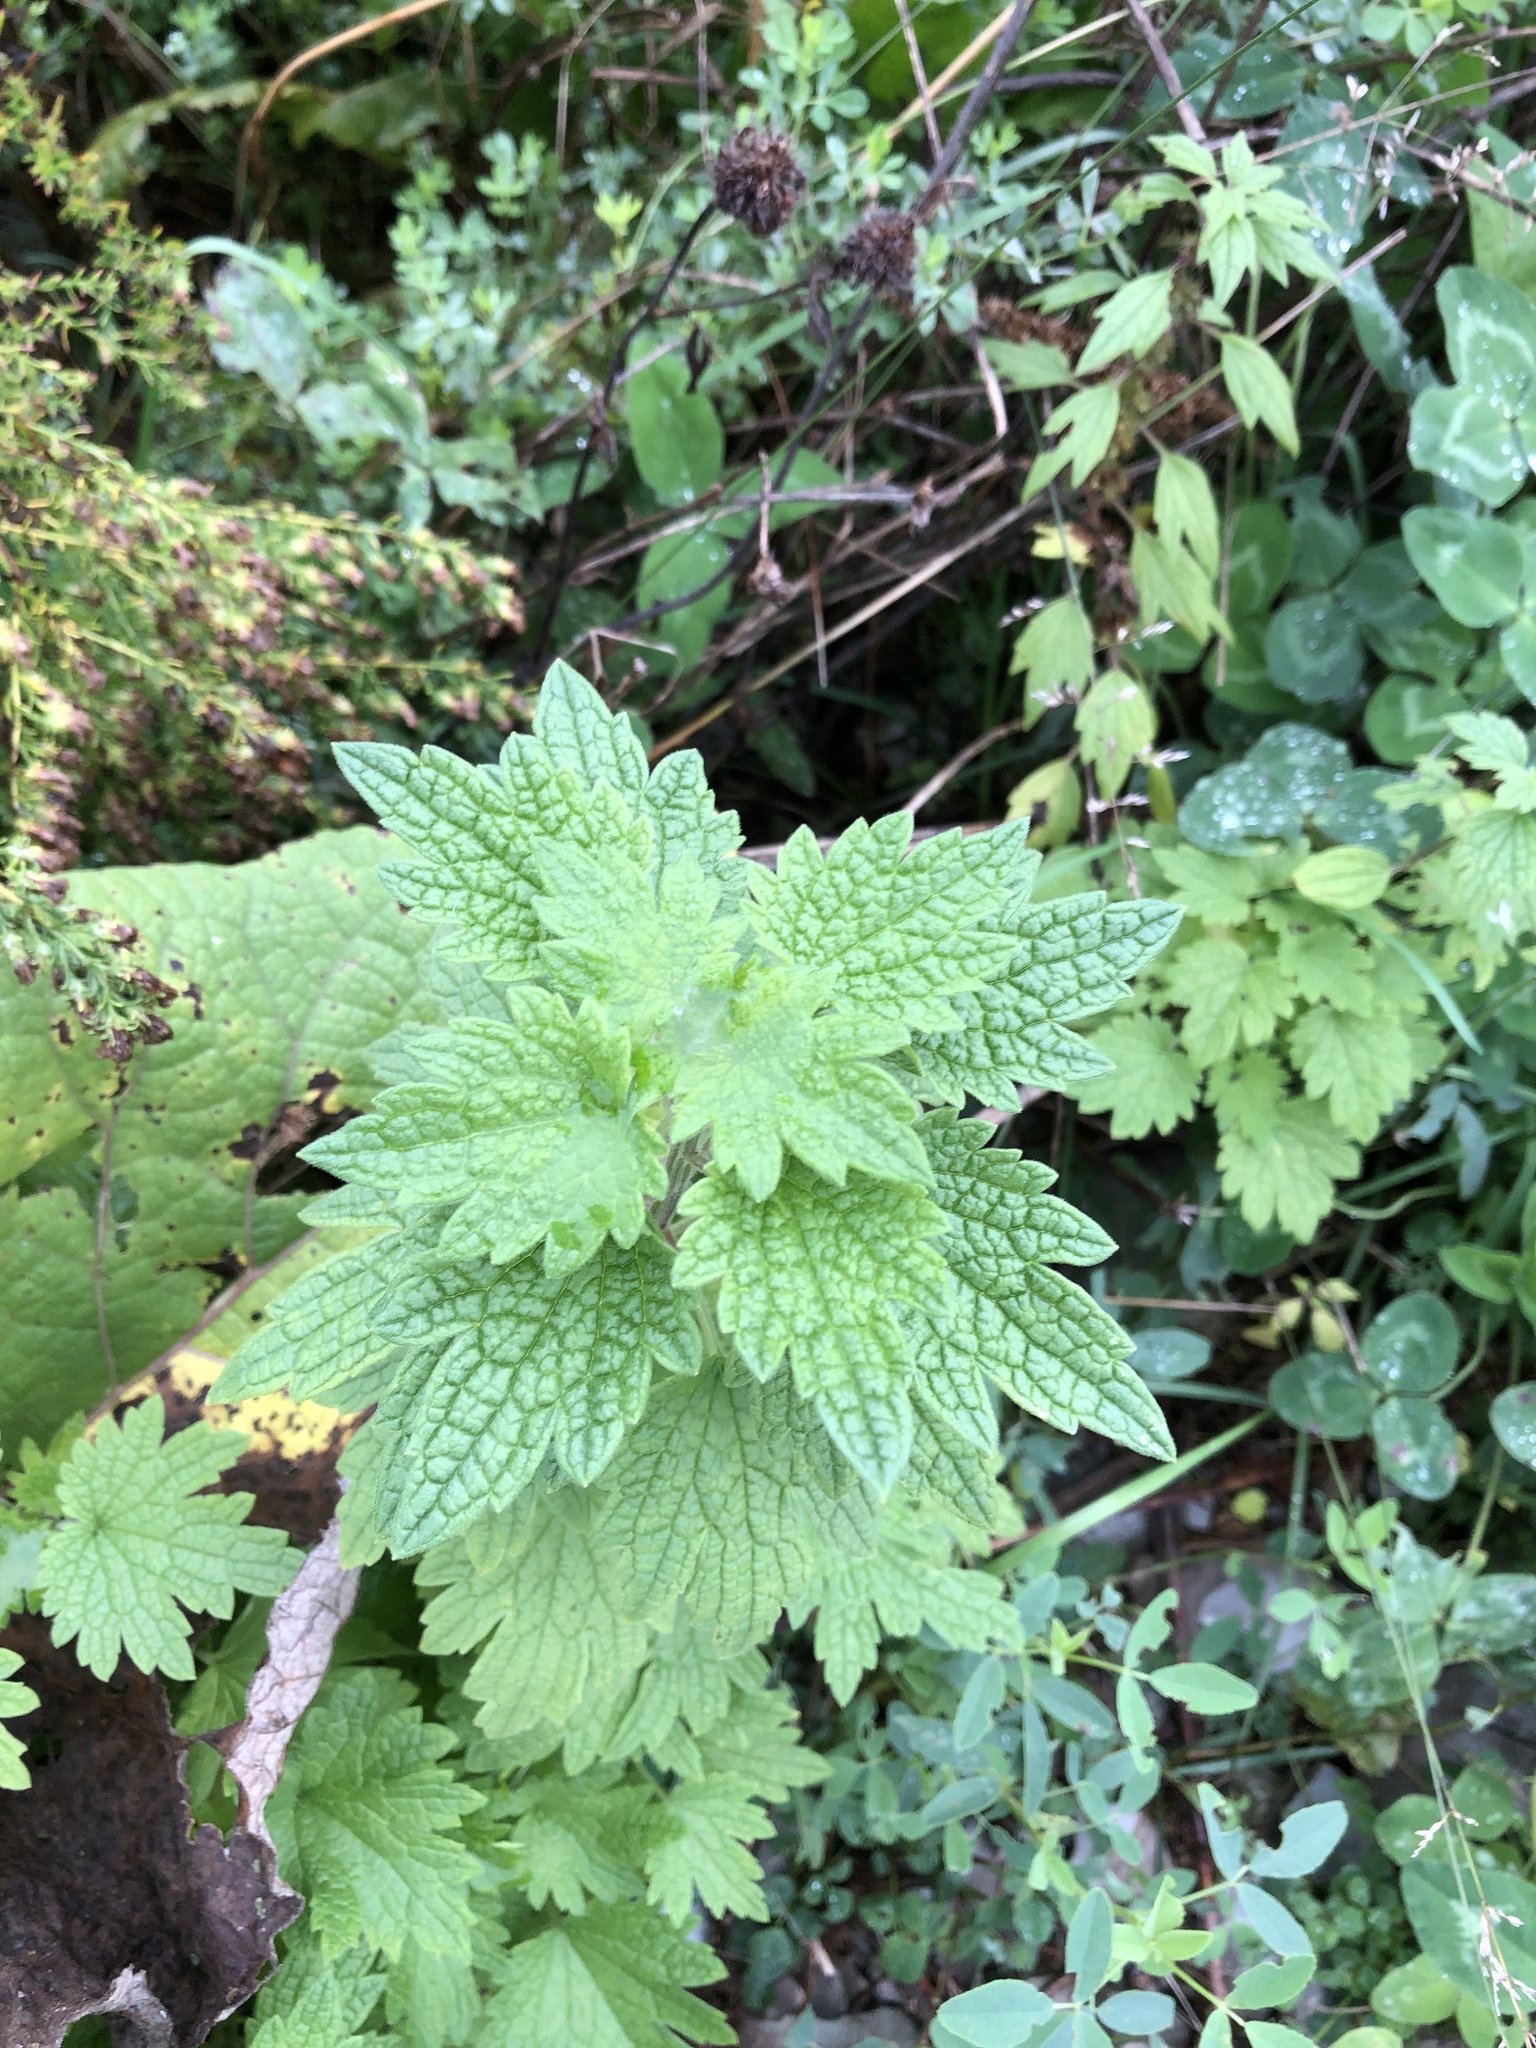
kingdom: Plantae
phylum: Tracheophyta
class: Magnoliopsida
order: Lamiales
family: Lamiaceae
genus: Leonurus
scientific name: Leonurus cardiaca
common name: Motherwort
